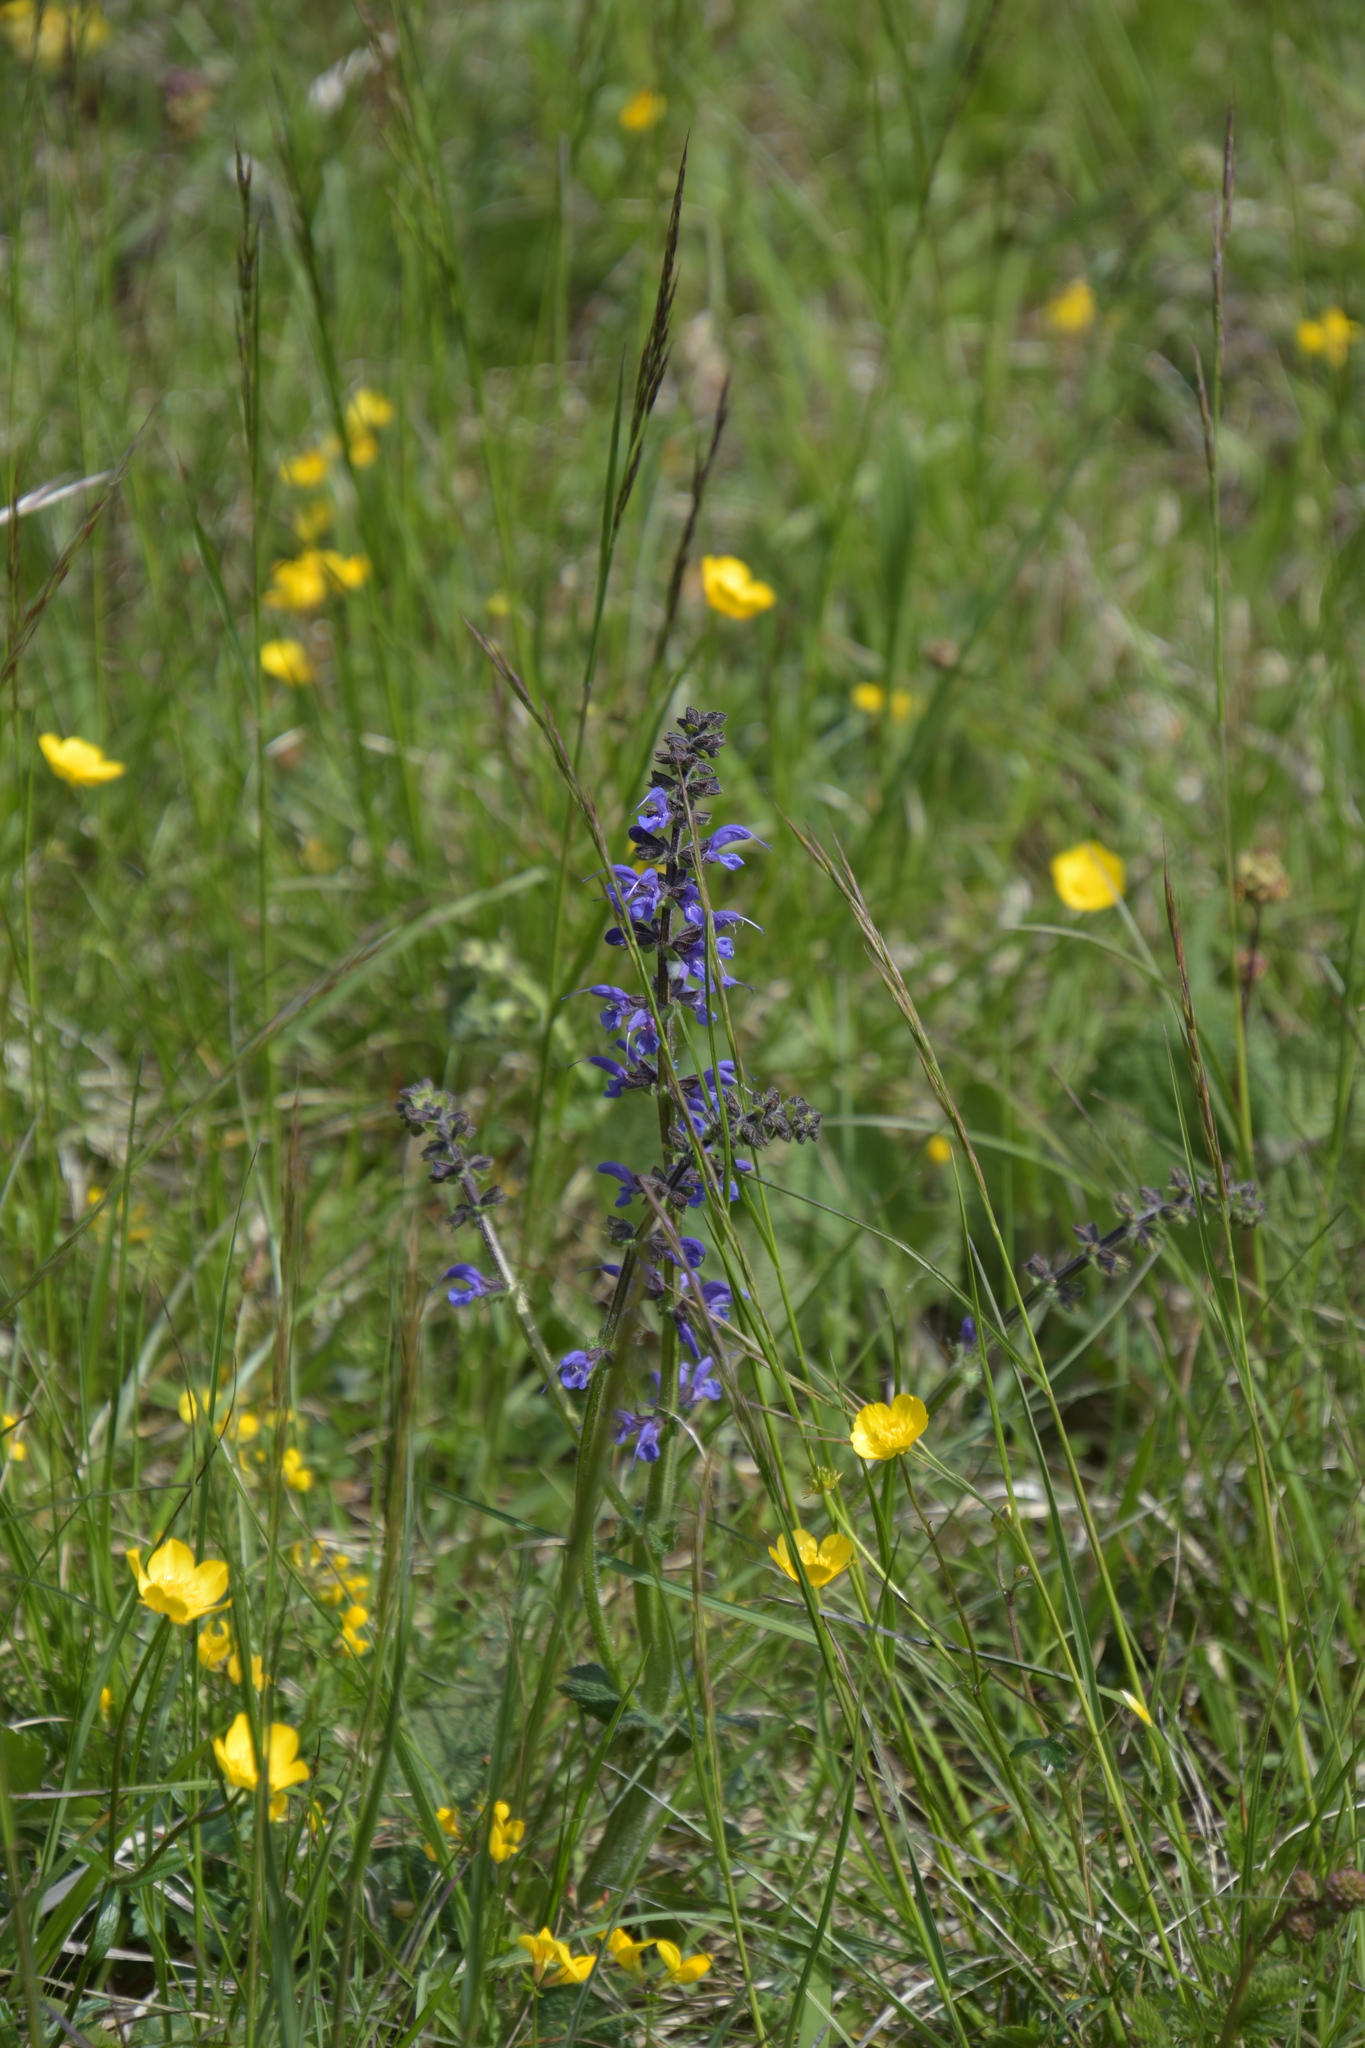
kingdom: Plantae
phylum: Tracheophyta
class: Magnoliopsida
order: Lamiales
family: Lamiaceae
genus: Salvia
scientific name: Salvia pratensis
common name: Meadow sage
